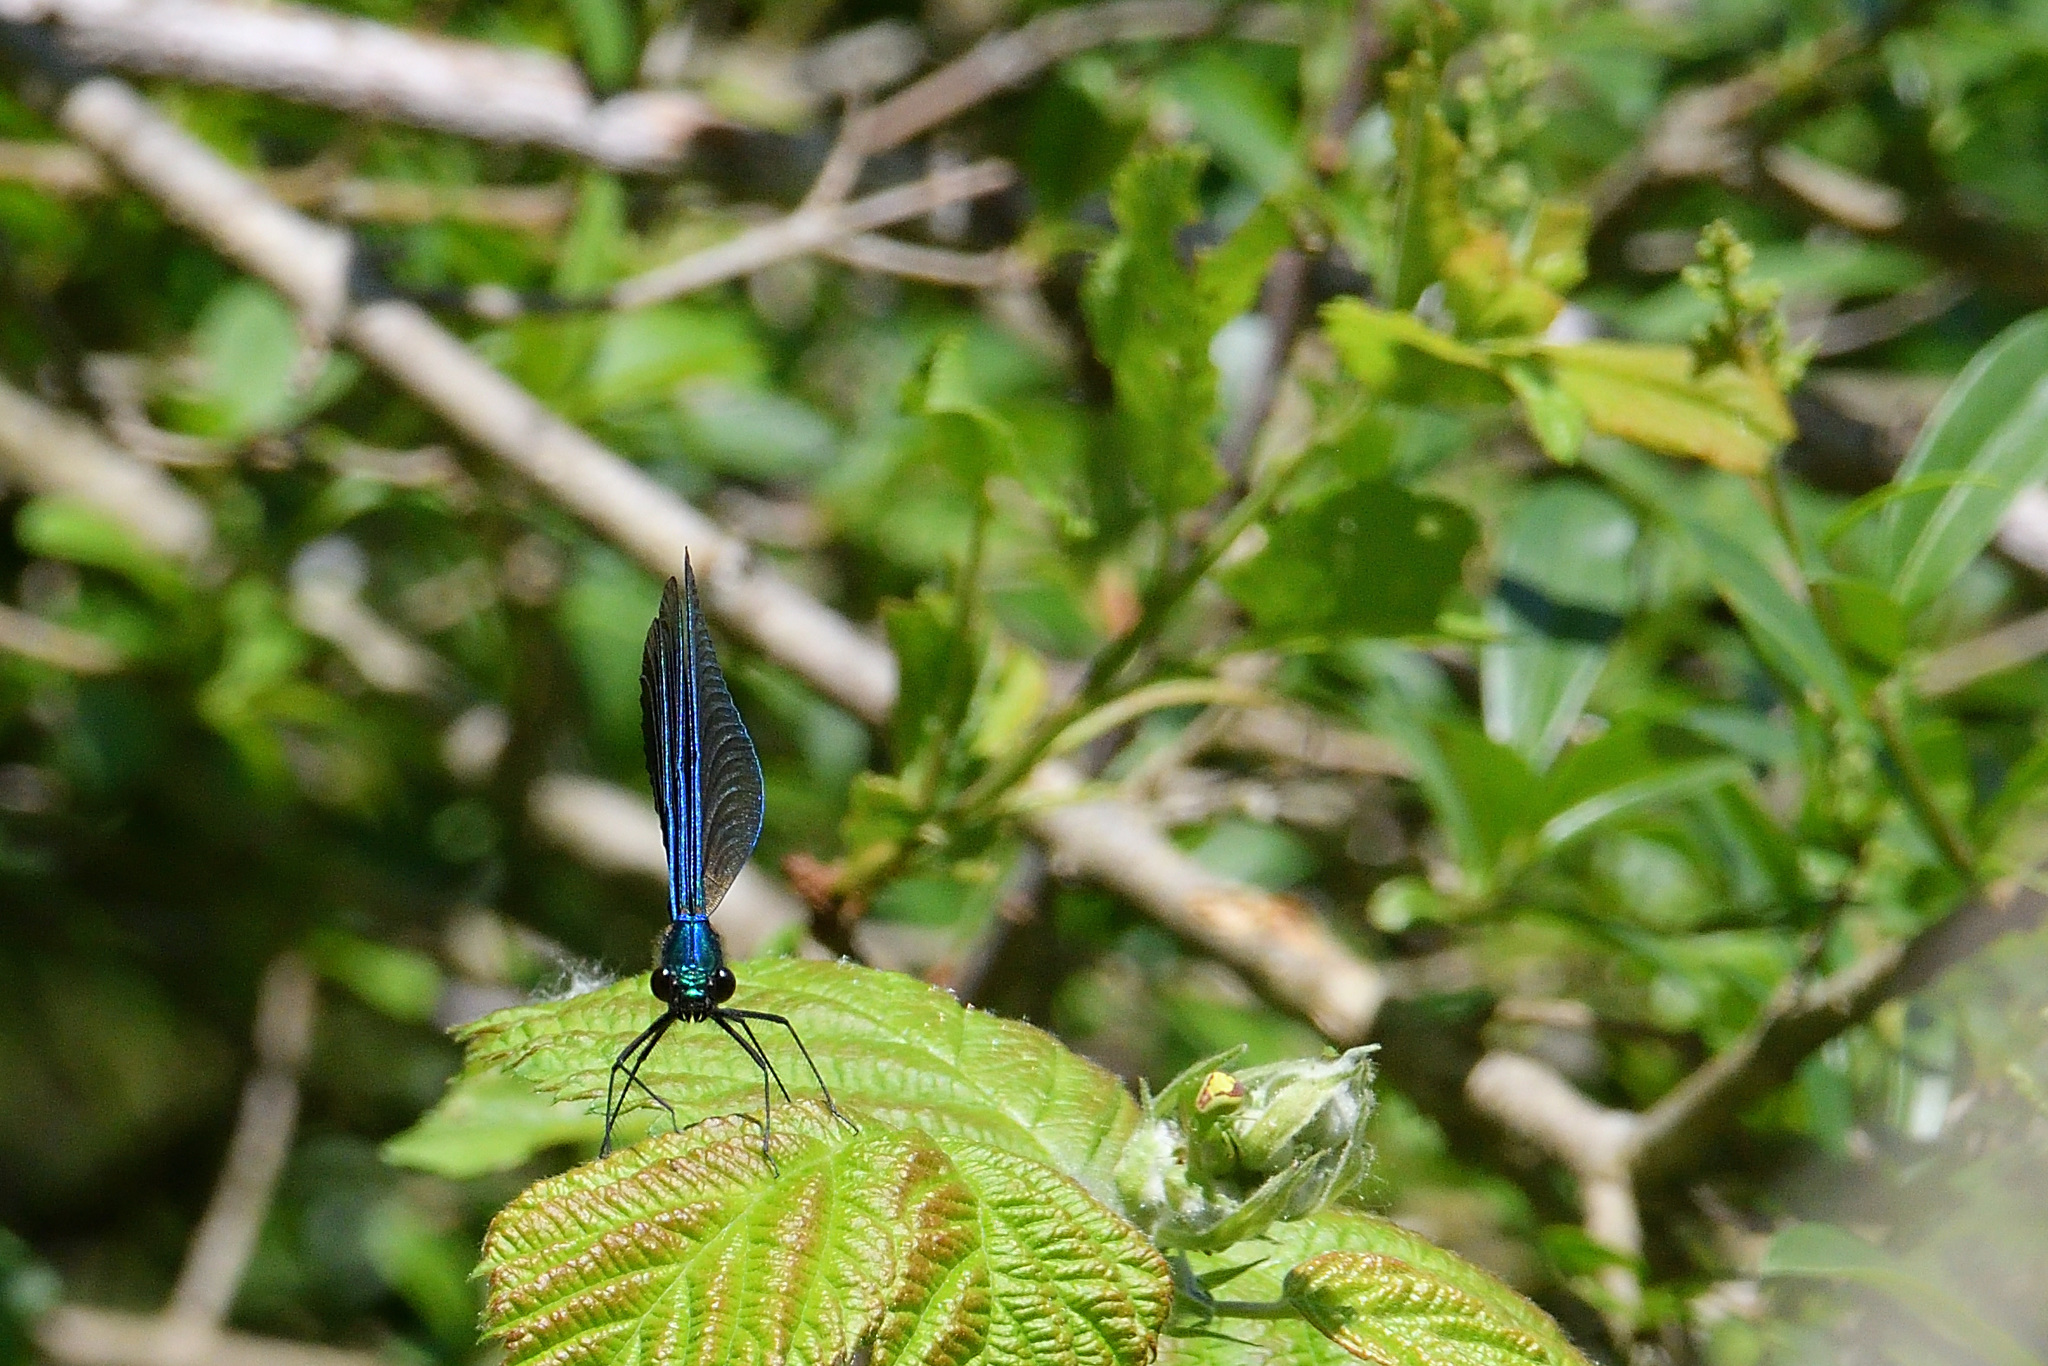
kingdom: Animalia
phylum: Arthropoda
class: Insecta
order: Odonata
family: Calopterygidae
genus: Calopteryx
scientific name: Calopteryx virgo
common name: Beautiful demoiselle
